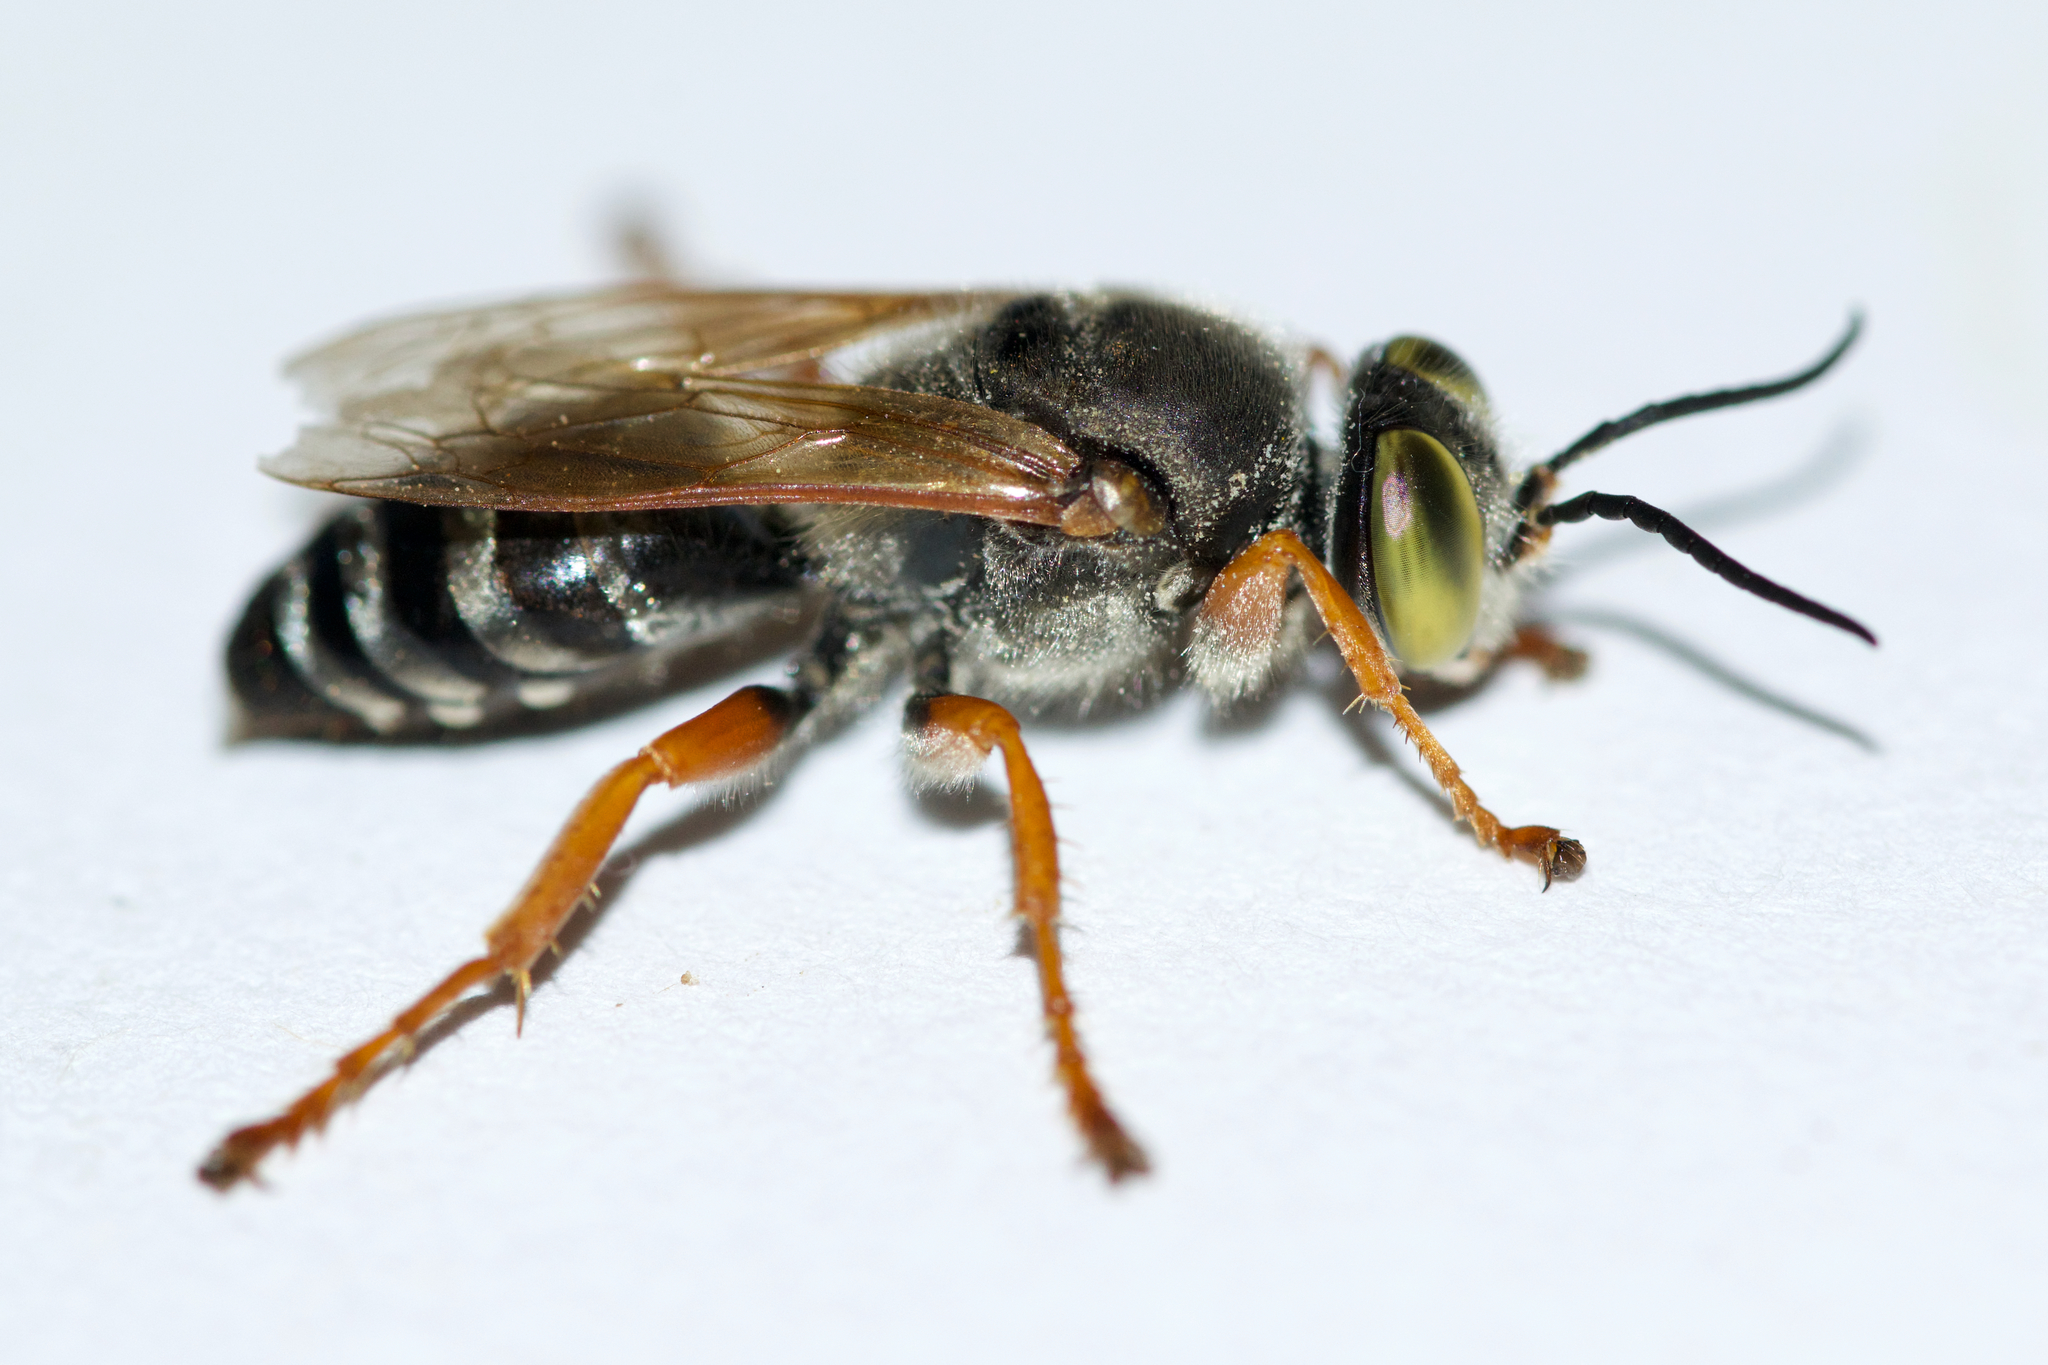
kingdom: Animalia
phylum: Arthropoda
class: Insecta
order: Hymenoptera
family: Crabronidae
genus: Tachytes
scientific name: Tachytes validus
